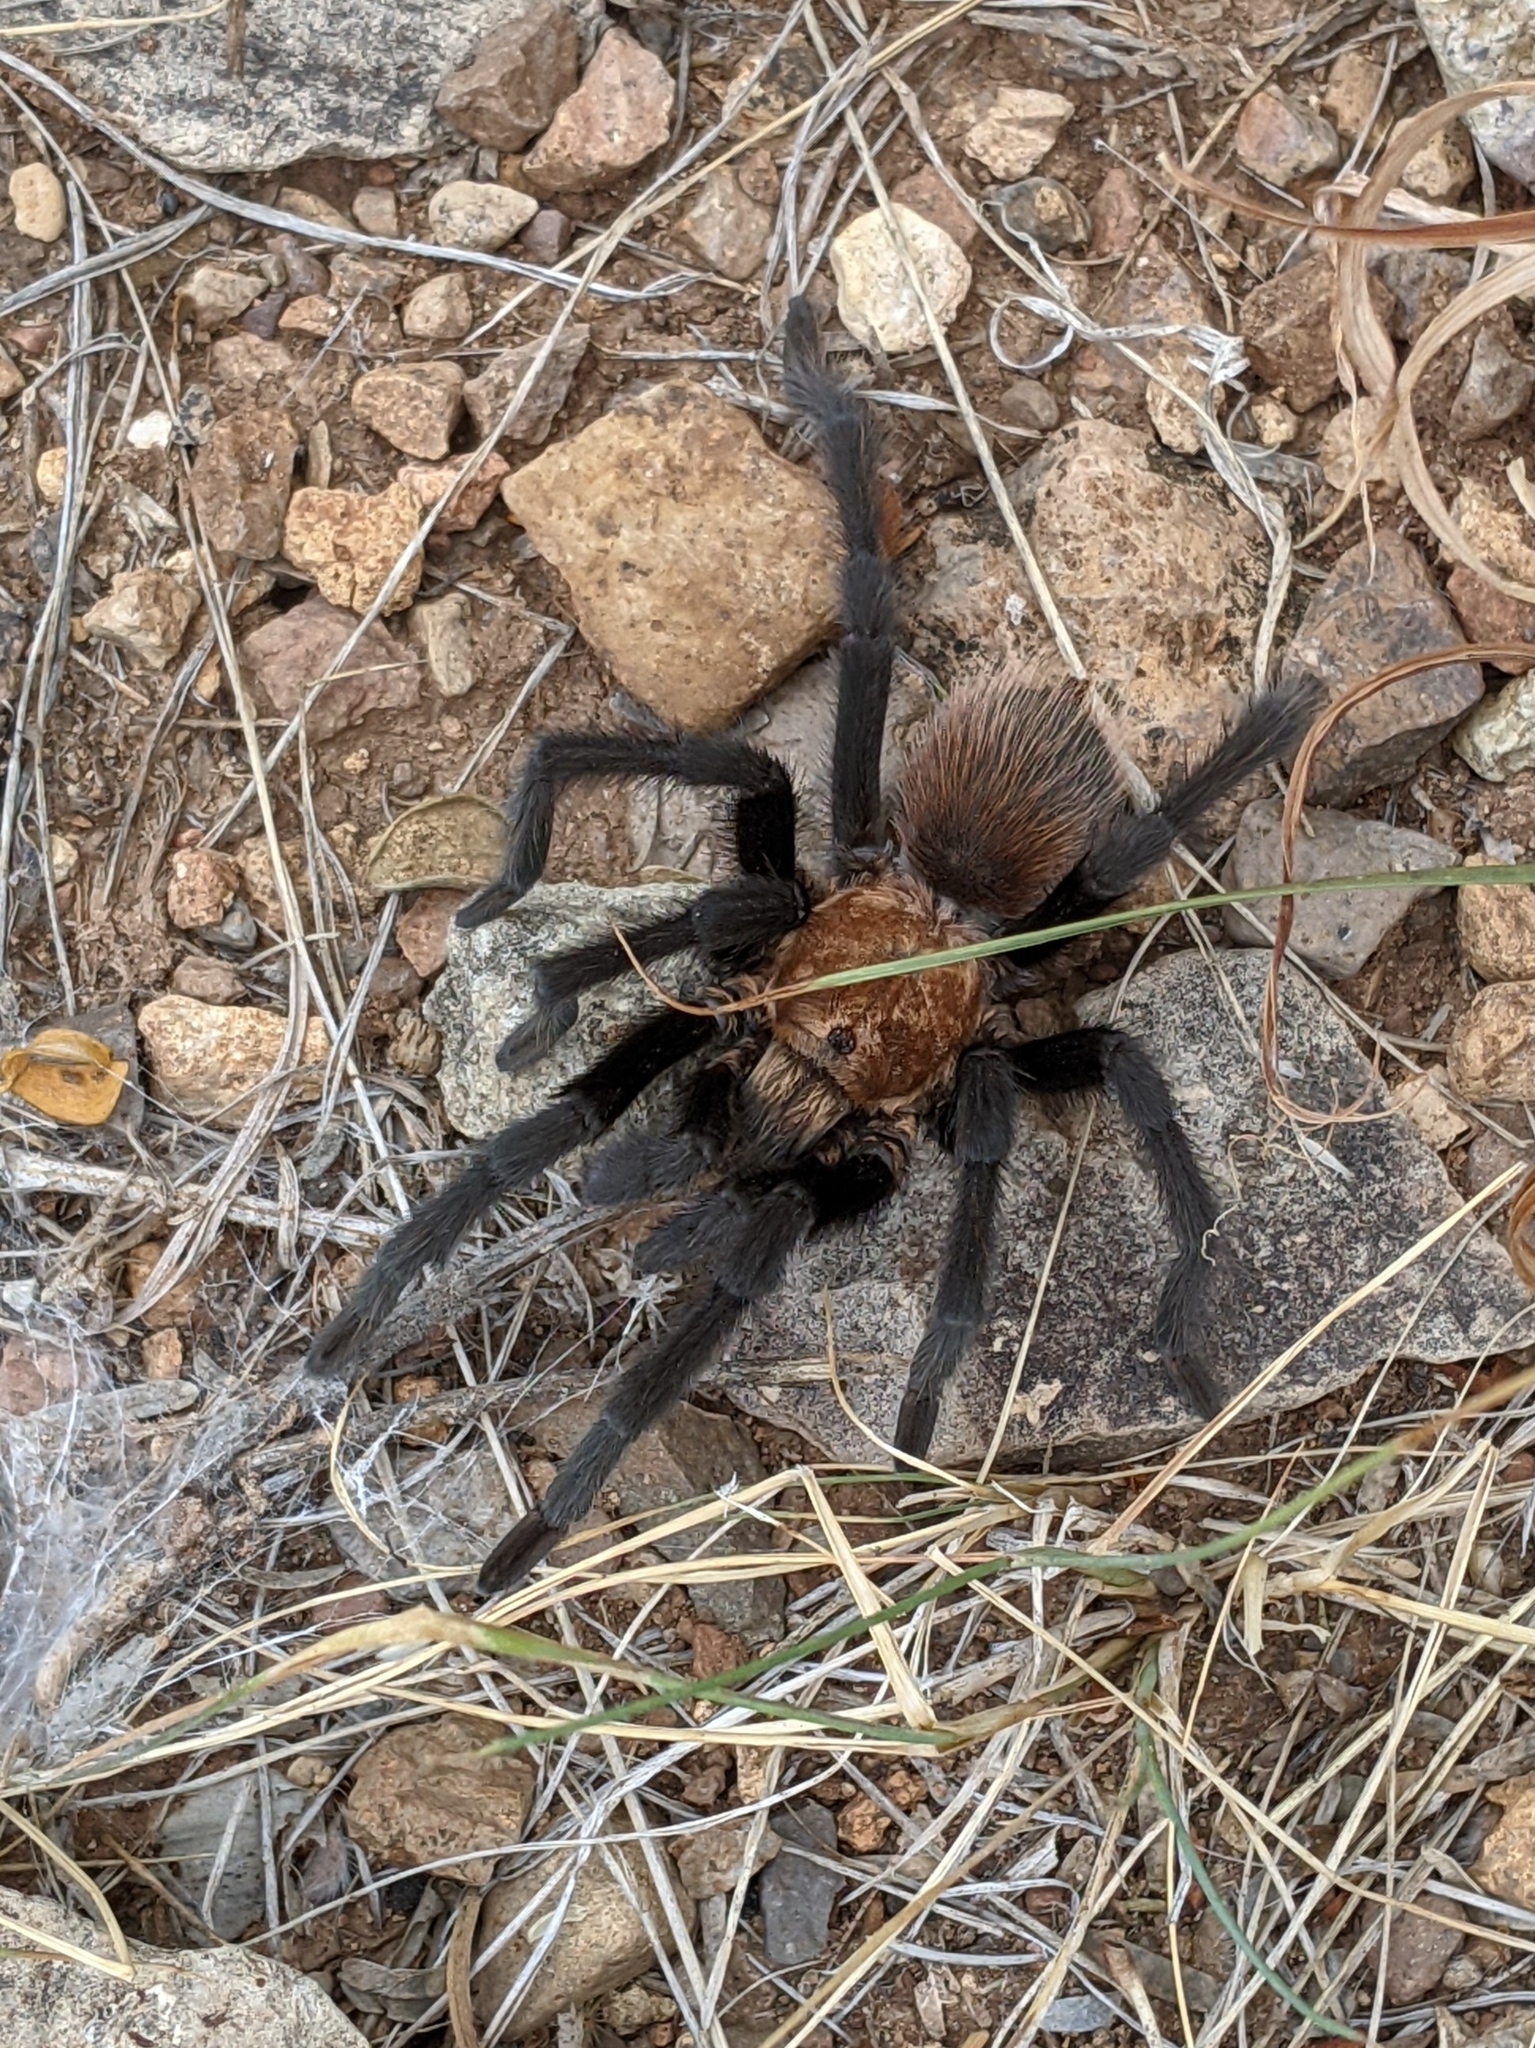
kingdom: Animalia
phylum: Arthropoda
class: Arachnida
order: Araneae
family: Theraphosidae
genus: Aphonopelma
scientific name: Aphonopelma hentzi
